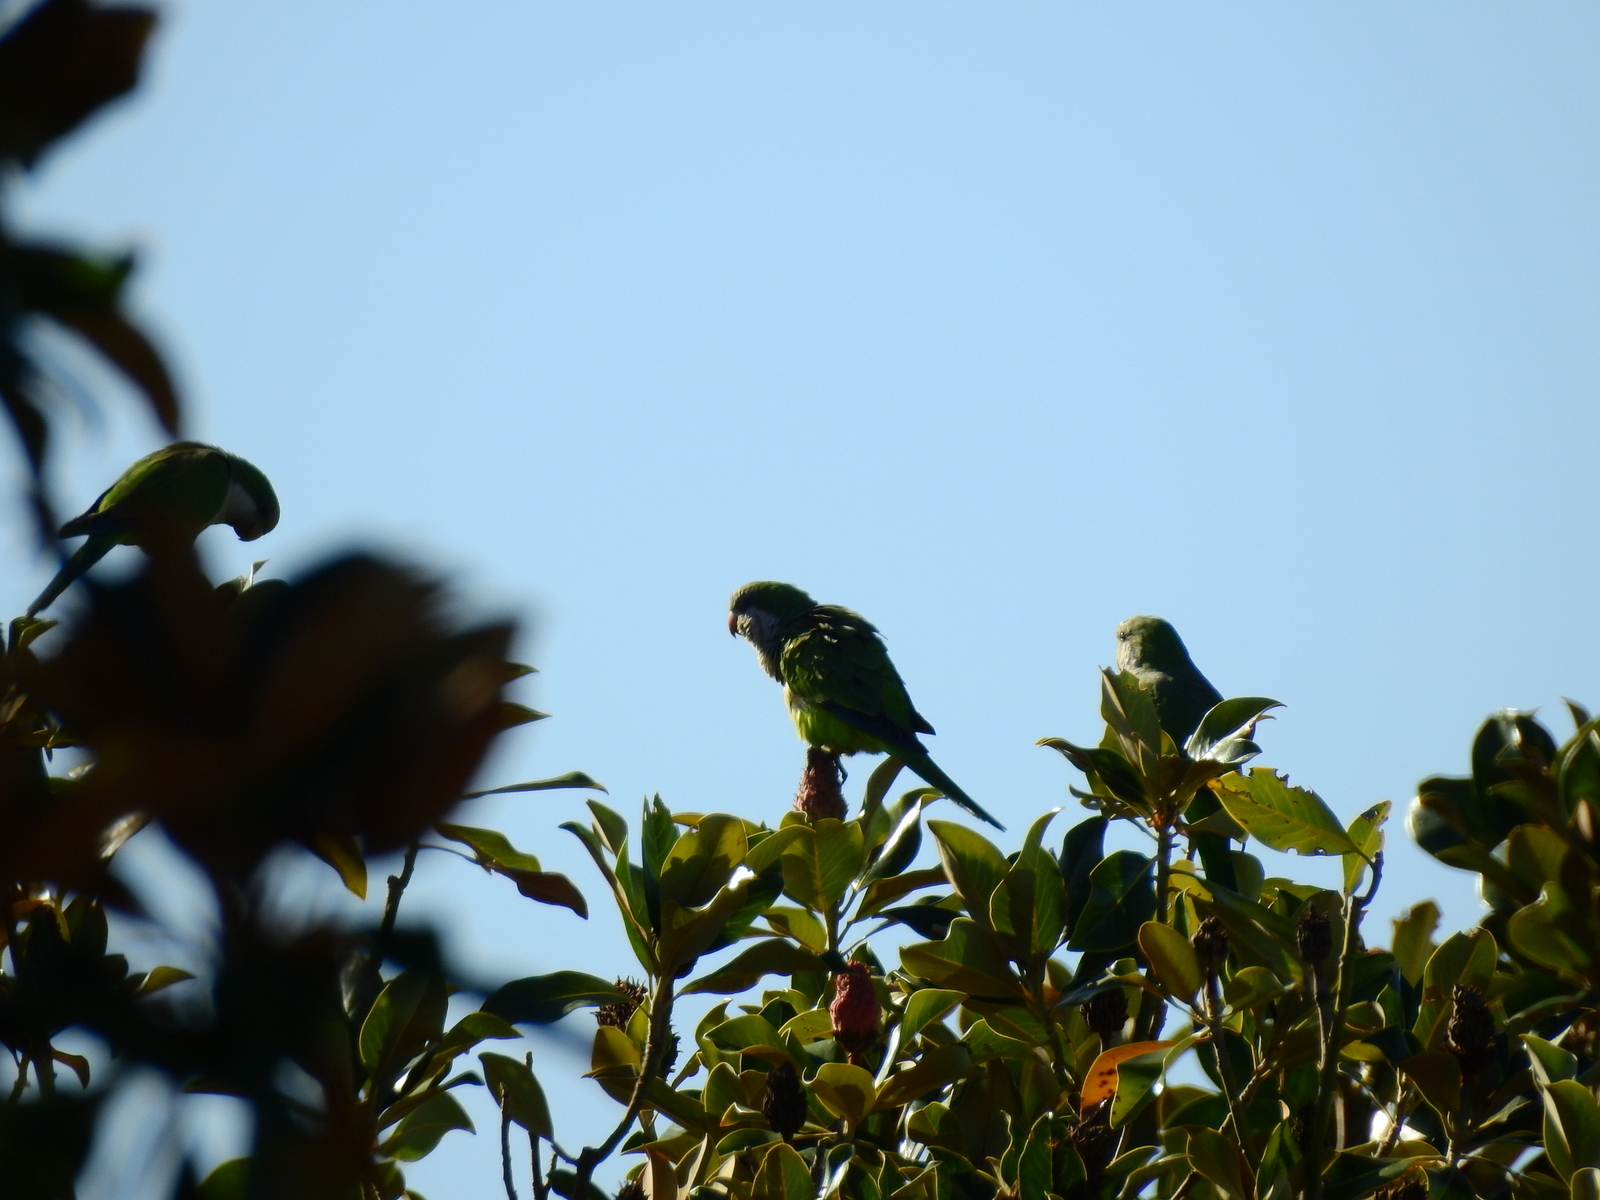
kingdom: Animalia
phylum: Chordata
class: Aves
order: Psittaciformes
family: Psittacidae
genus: Myiopsitta
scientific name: Myiopsitta monachus
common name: Monk parakeet
